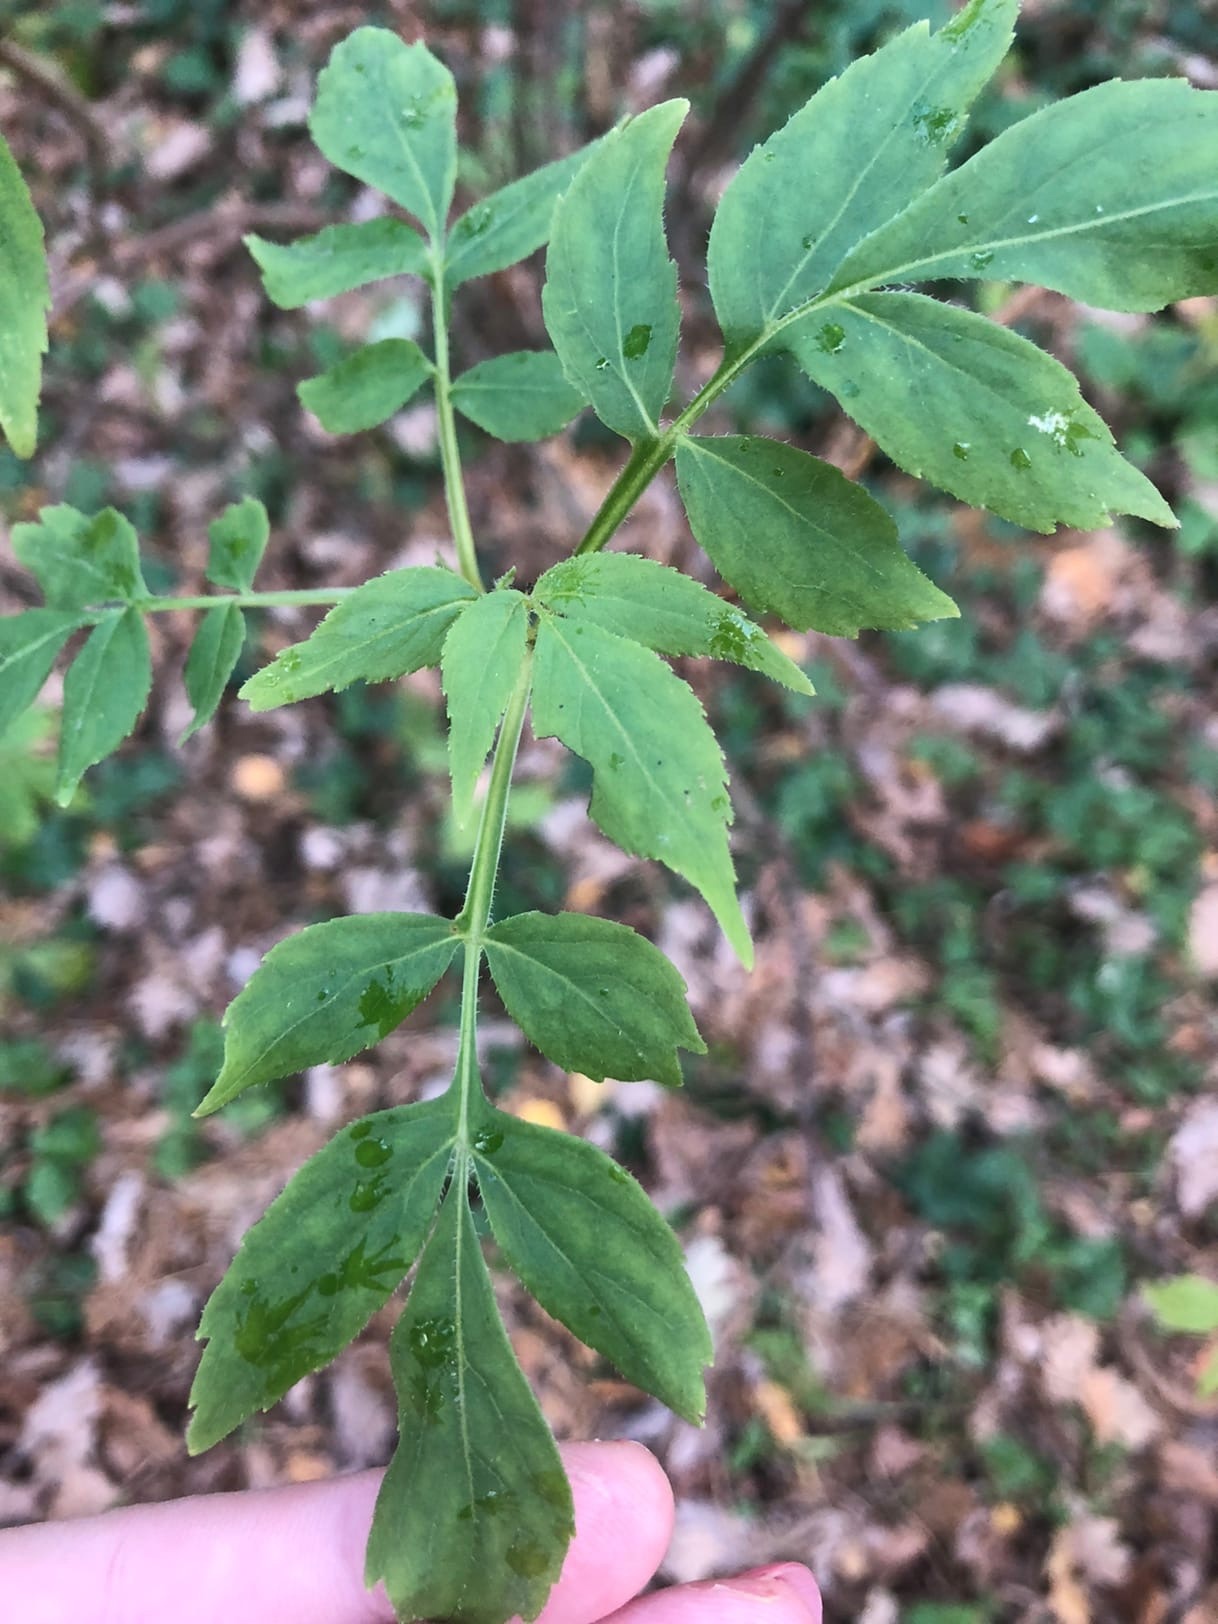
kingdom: Plantae
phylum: Tracheophyta
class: Magnoliopsida
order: Dipsacales
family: Viburnaceae
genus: Sambucus
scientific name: Sambucus racemosa
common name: Red-berried elder
